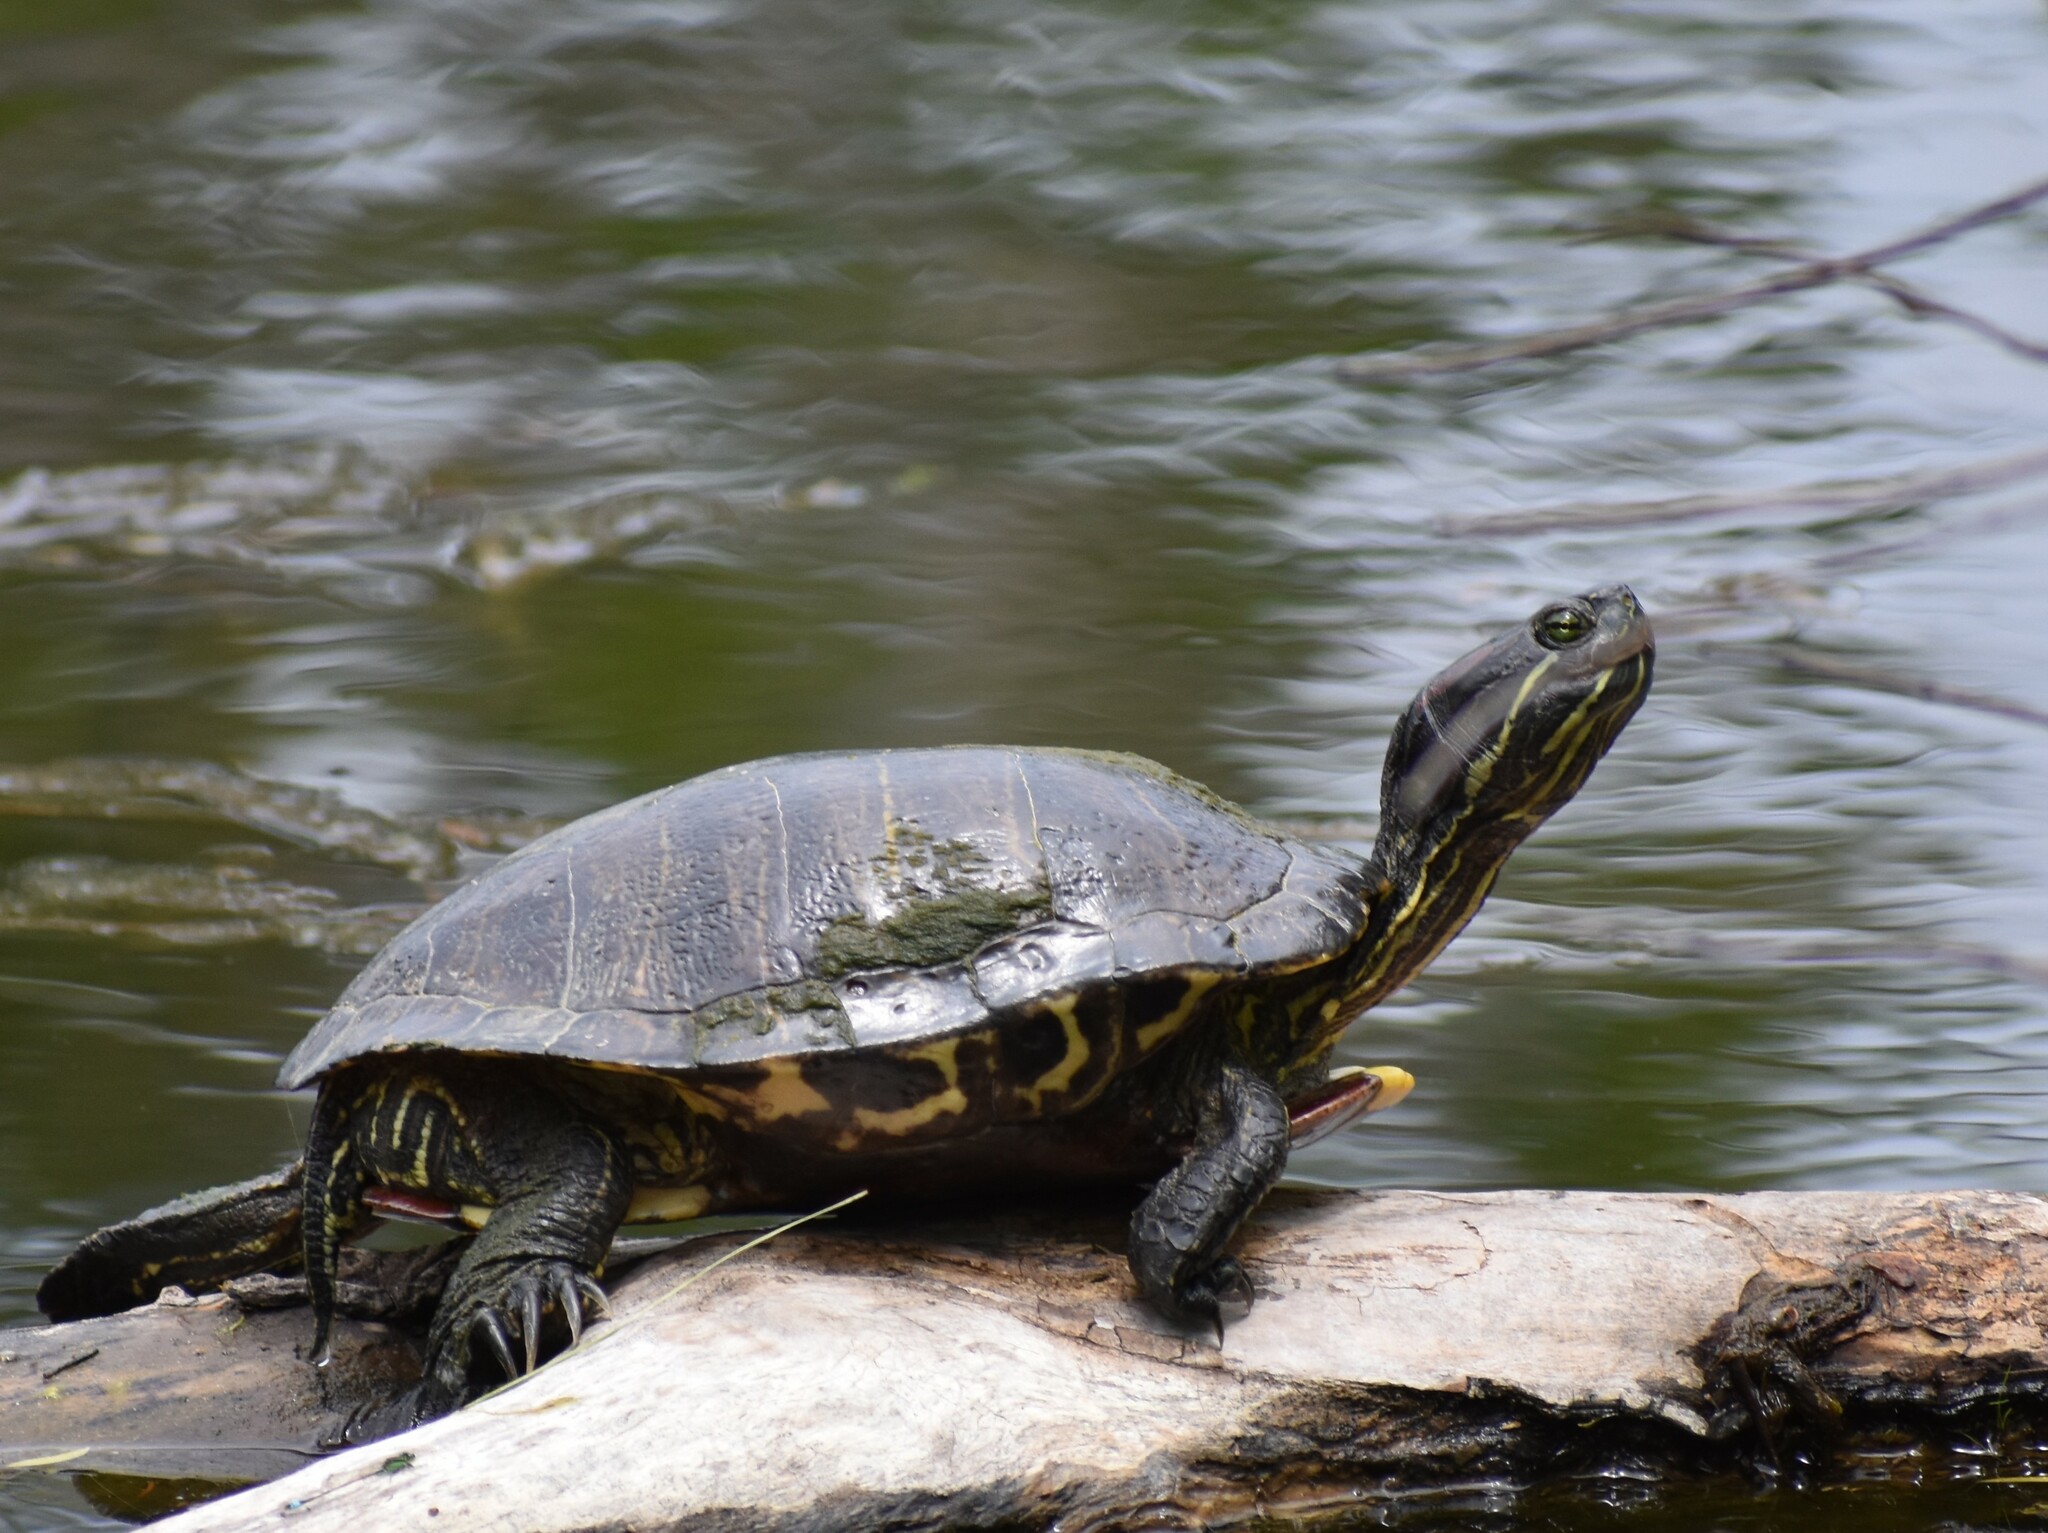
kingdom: Animalia
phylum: Chordata
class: Testudines
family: Emydidae
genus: Trachemys
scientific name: Trachemys scripta
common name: Slider
